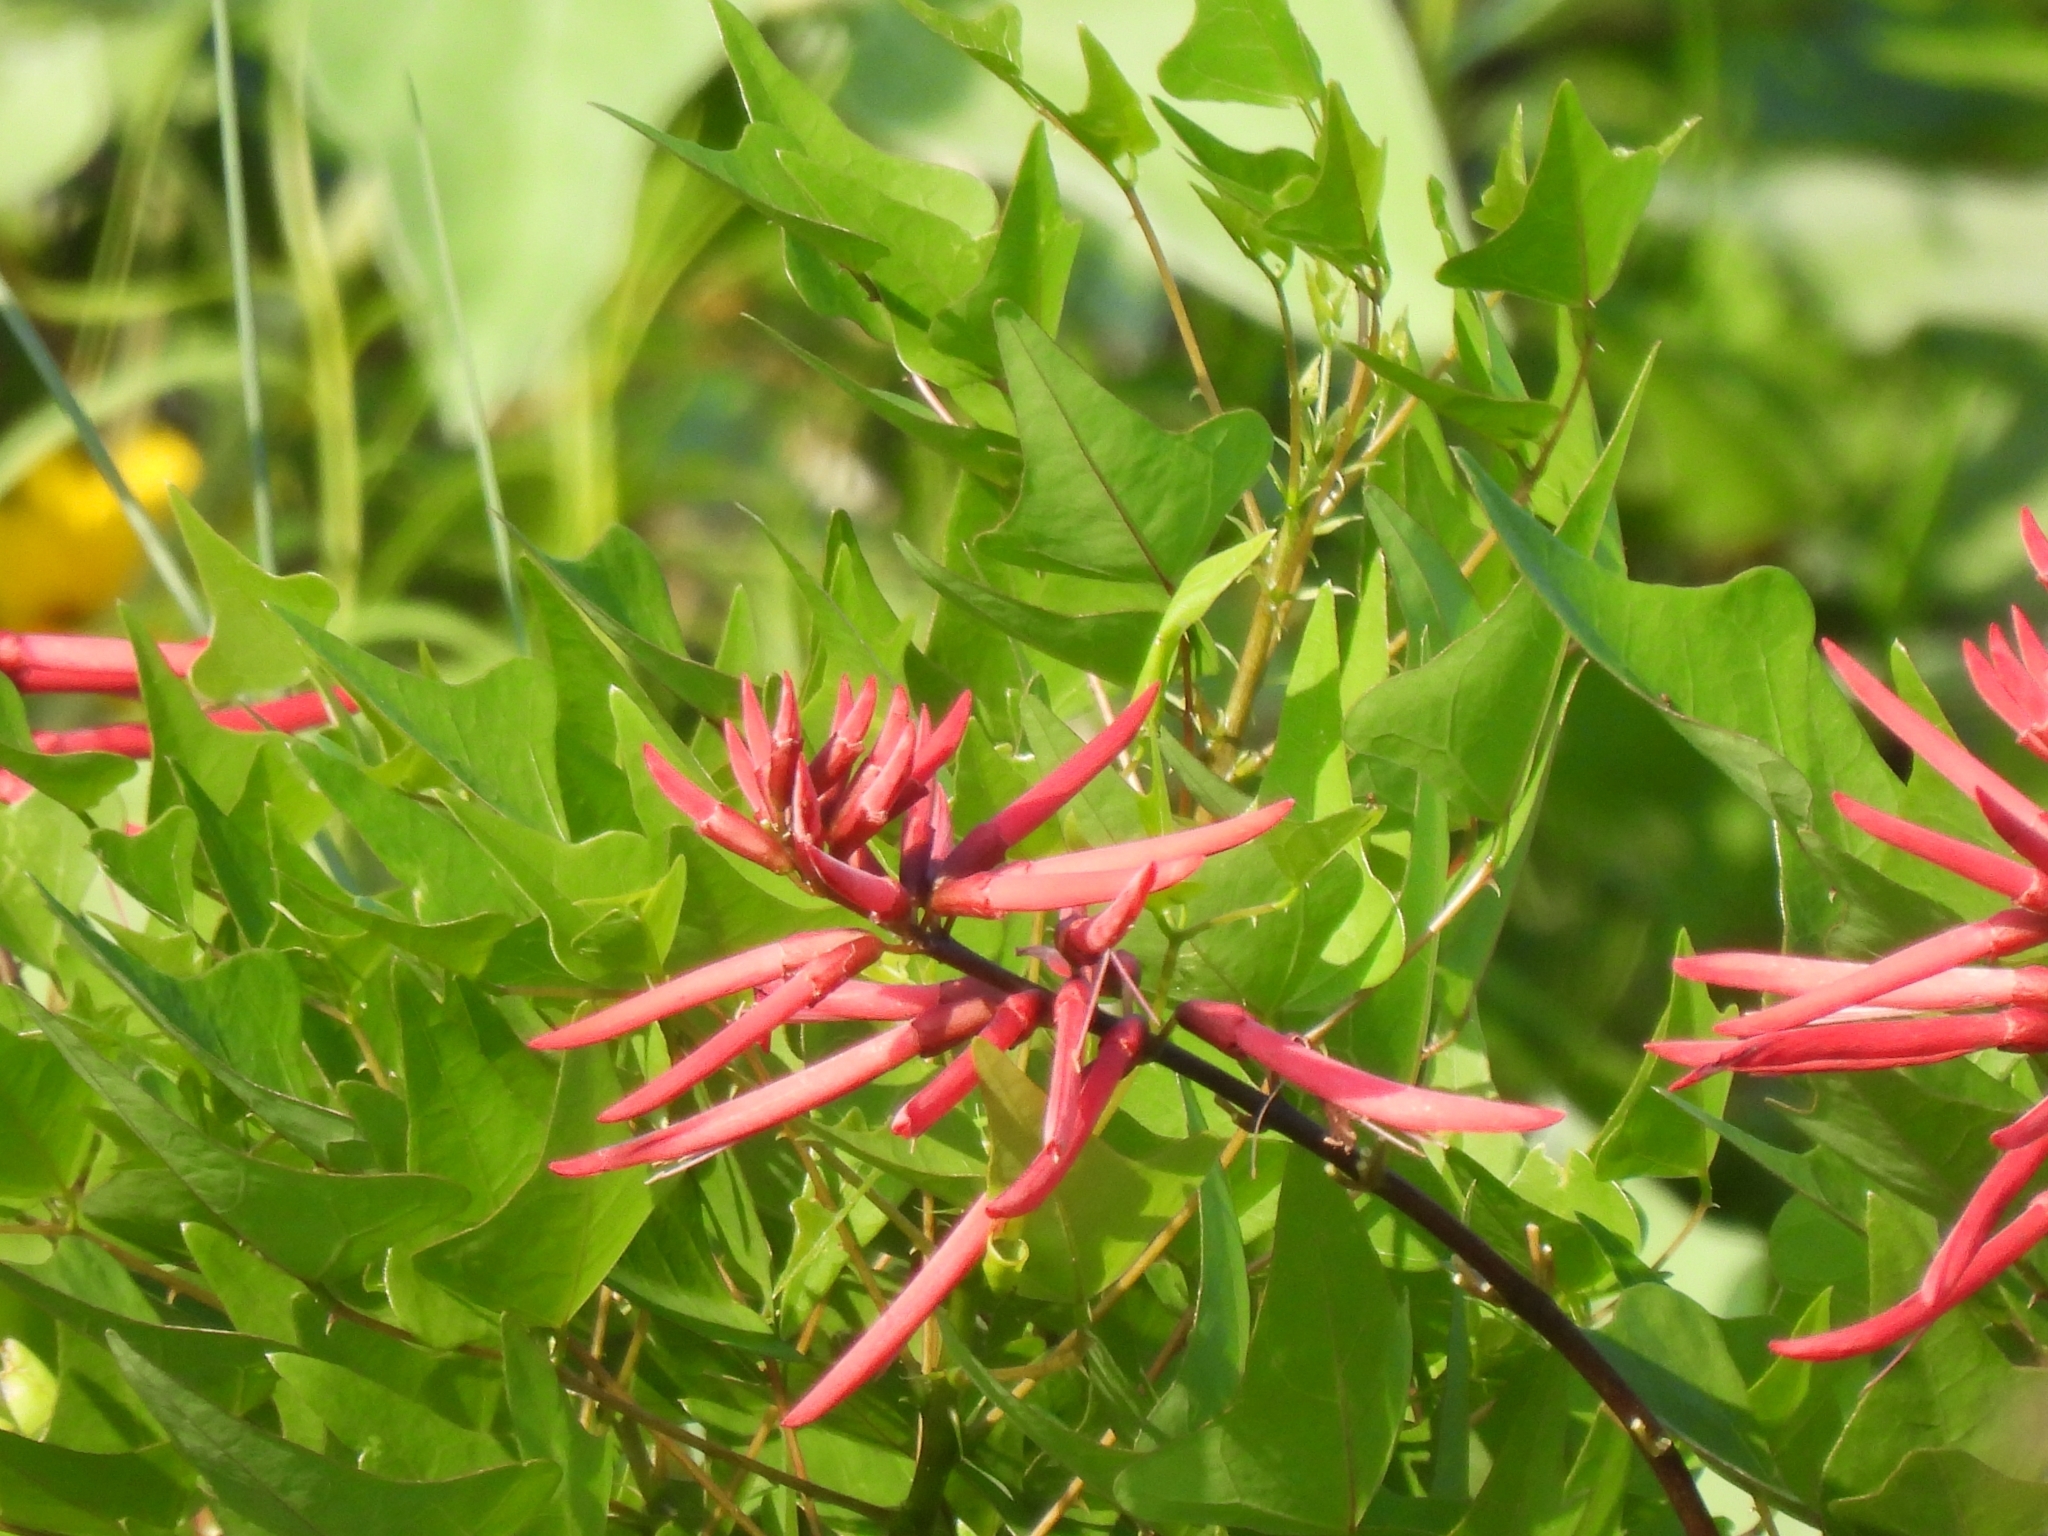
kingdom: Plantae
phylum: Tracheophyta
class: Magnoliopsida
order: Fabales
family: Fabaceae
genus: Erythrina
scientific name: Erythrina herbacea
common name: Coral-bean
